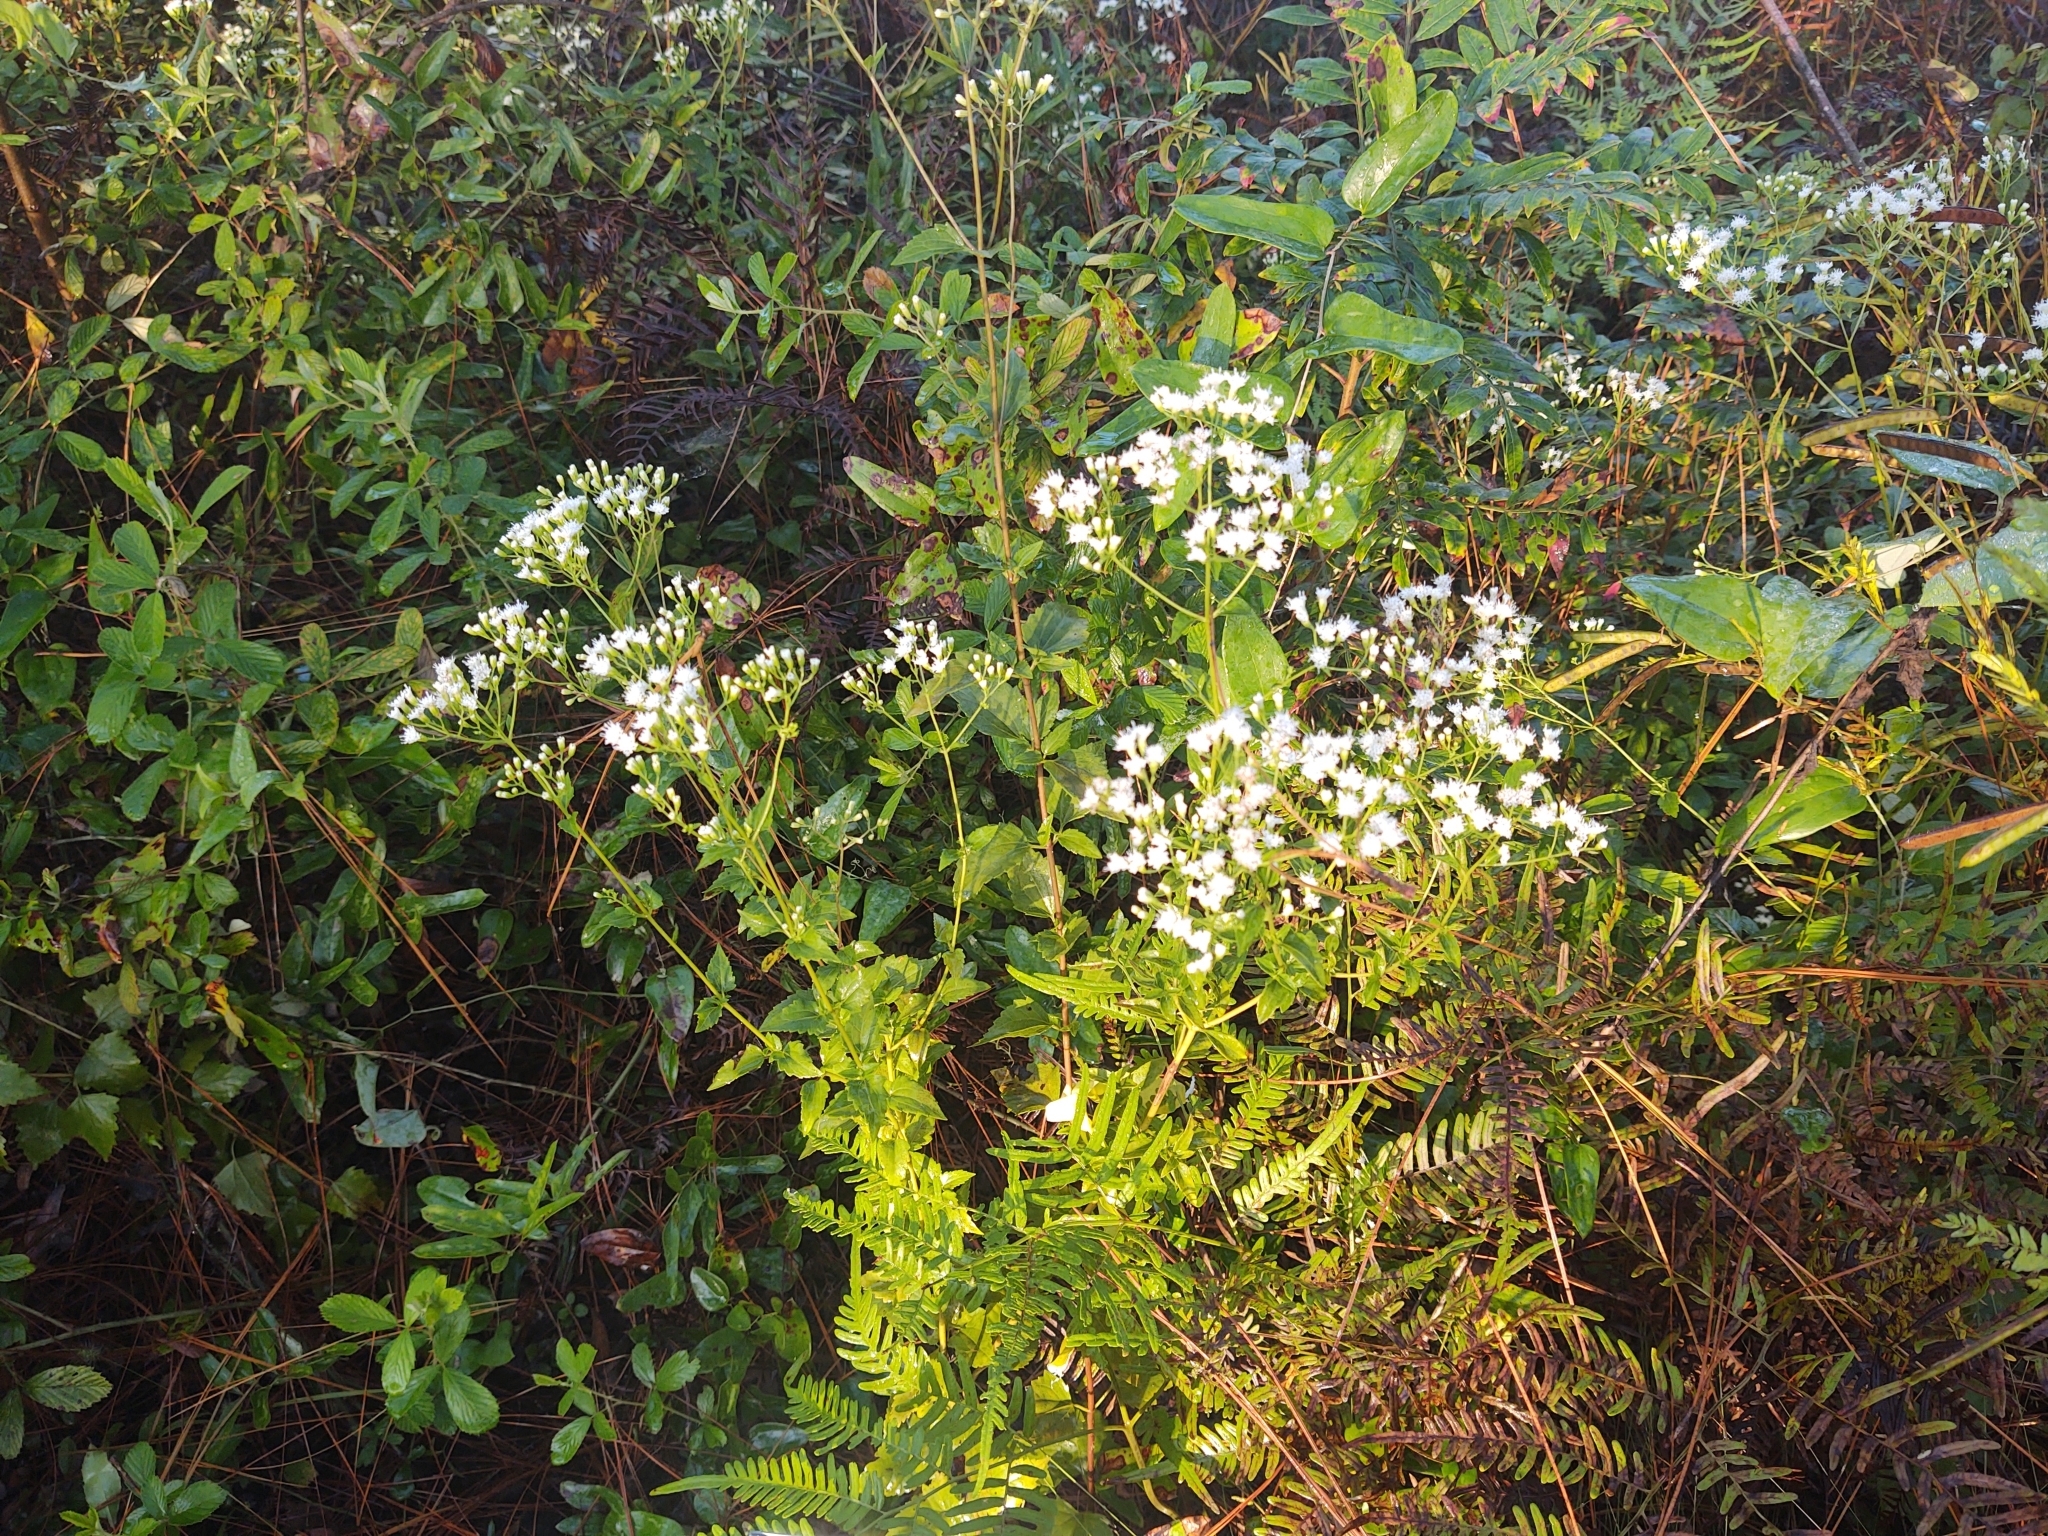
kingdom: Plantae
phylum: Tracheophyta
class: Magnoliopsida
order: Asterales
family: Asteraceae
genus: Ageratina
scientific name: Ageratina jucunda
